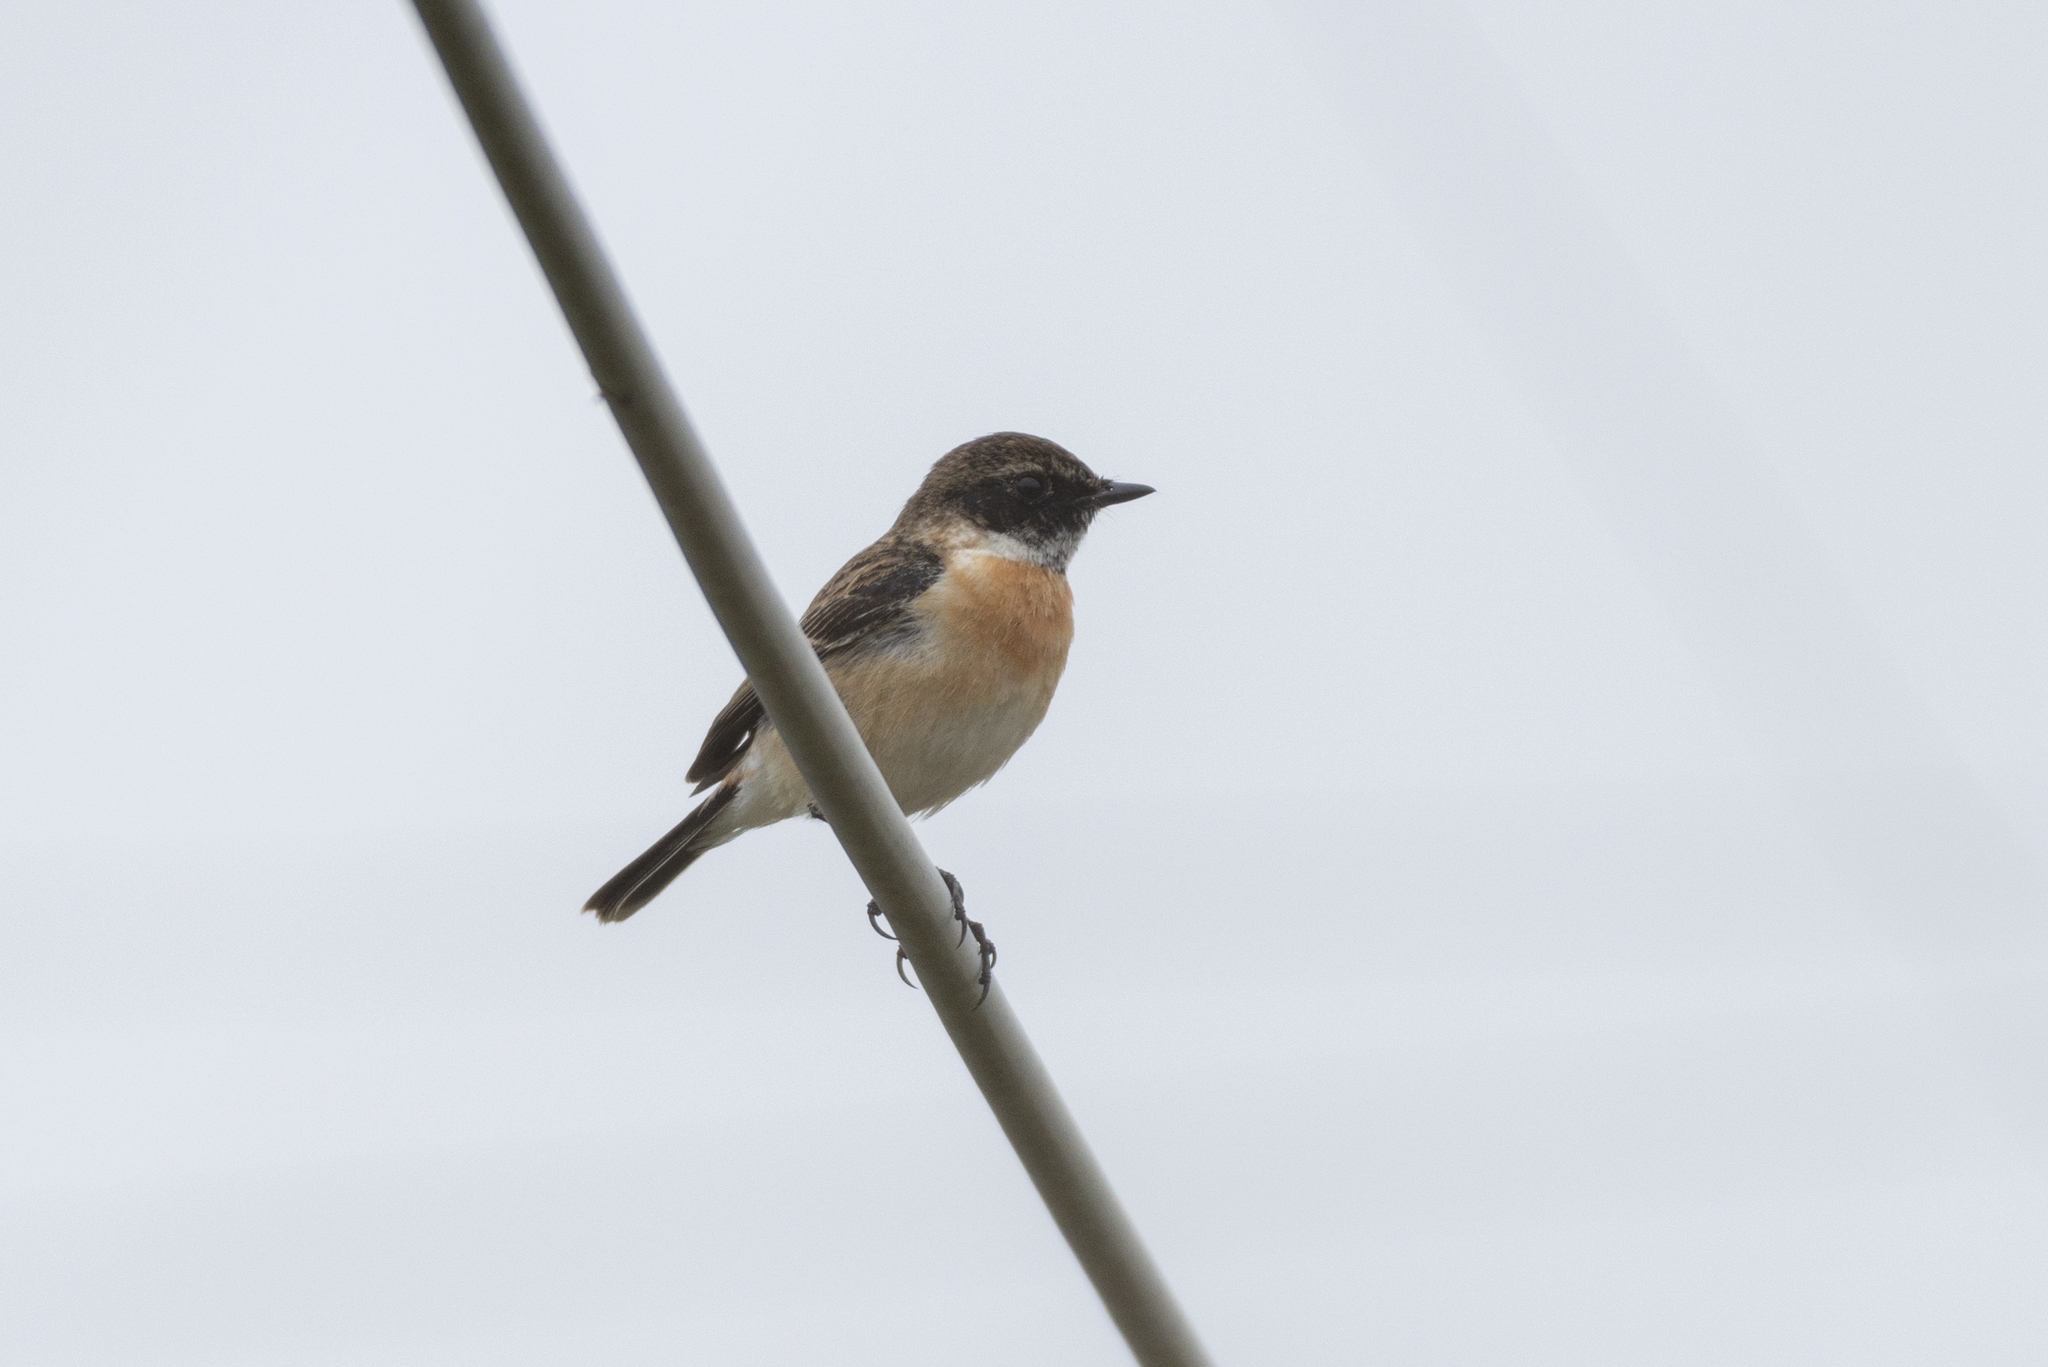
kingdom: Animalia
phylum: Chordata
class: Aves
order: Passeriformes
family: Muscicapidae
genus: Saxicola
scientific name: Saxicola maurus
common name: Siberian stonechat
